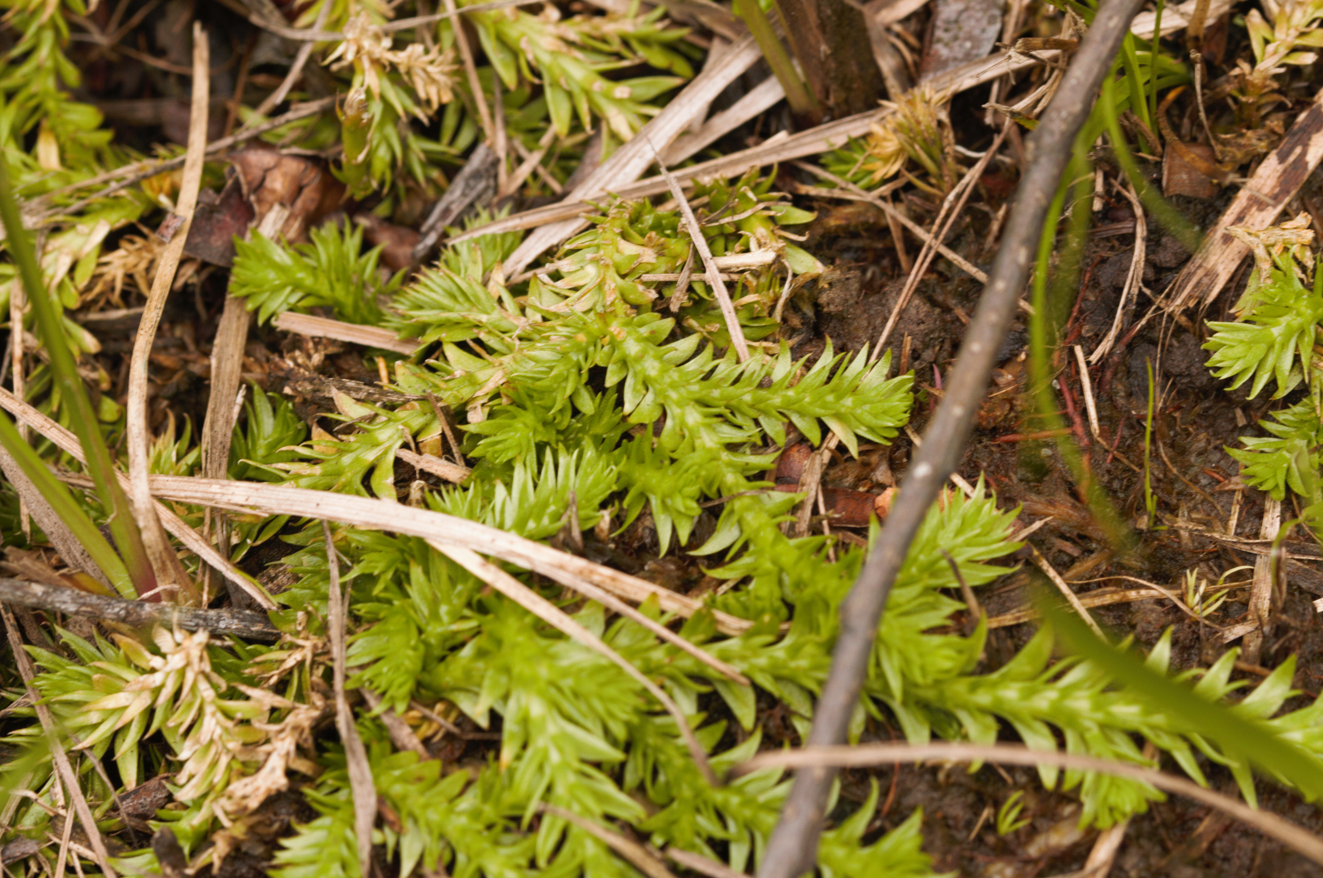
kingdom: Plantae
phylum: Tracheophyta
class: Lycopodiopsida
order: Lycopodiales
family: Lycopodiaceae
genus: Pseudolycopodiella
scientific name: Pseudolycopodiella meridionalis
